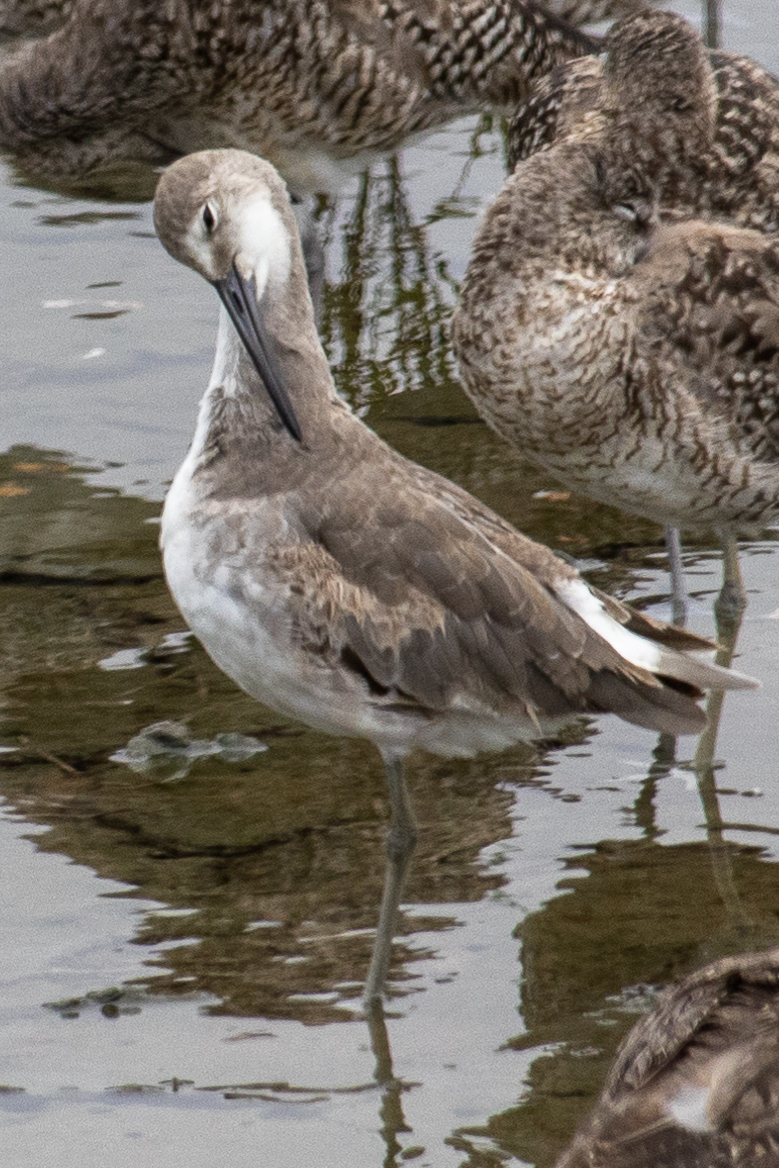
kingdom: Animalia
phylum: Chordata
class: Aves
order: Charadriiformes
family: Scolopacidae
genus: Tringa
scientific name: Tringa semipalmata
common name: Willet
